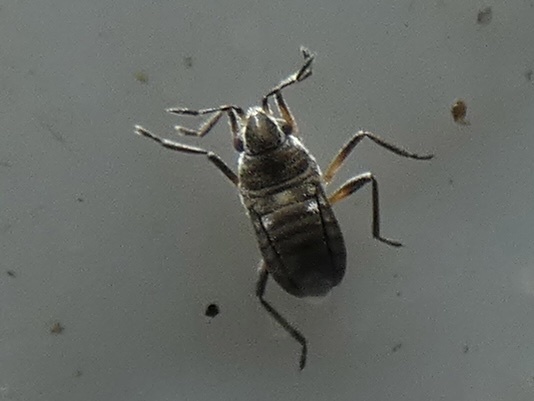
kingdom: Animalia
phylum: Arthropoda
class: Insecta
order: Hemiptera
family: Veliidae
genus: Microvelia
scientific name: Microvelia reticulata
